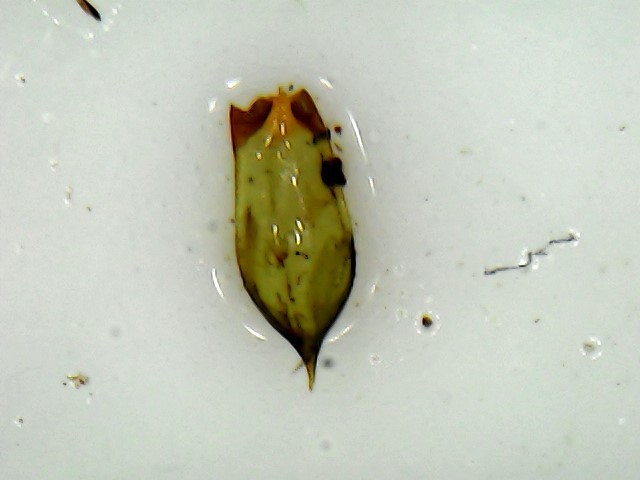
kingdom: Plantae
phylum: Bryophyta
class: Bryopsida
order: Hedwigiales
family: Hedwigiaceae
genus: Rhacocarpus
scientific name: Rhacocarpus purpurascens
